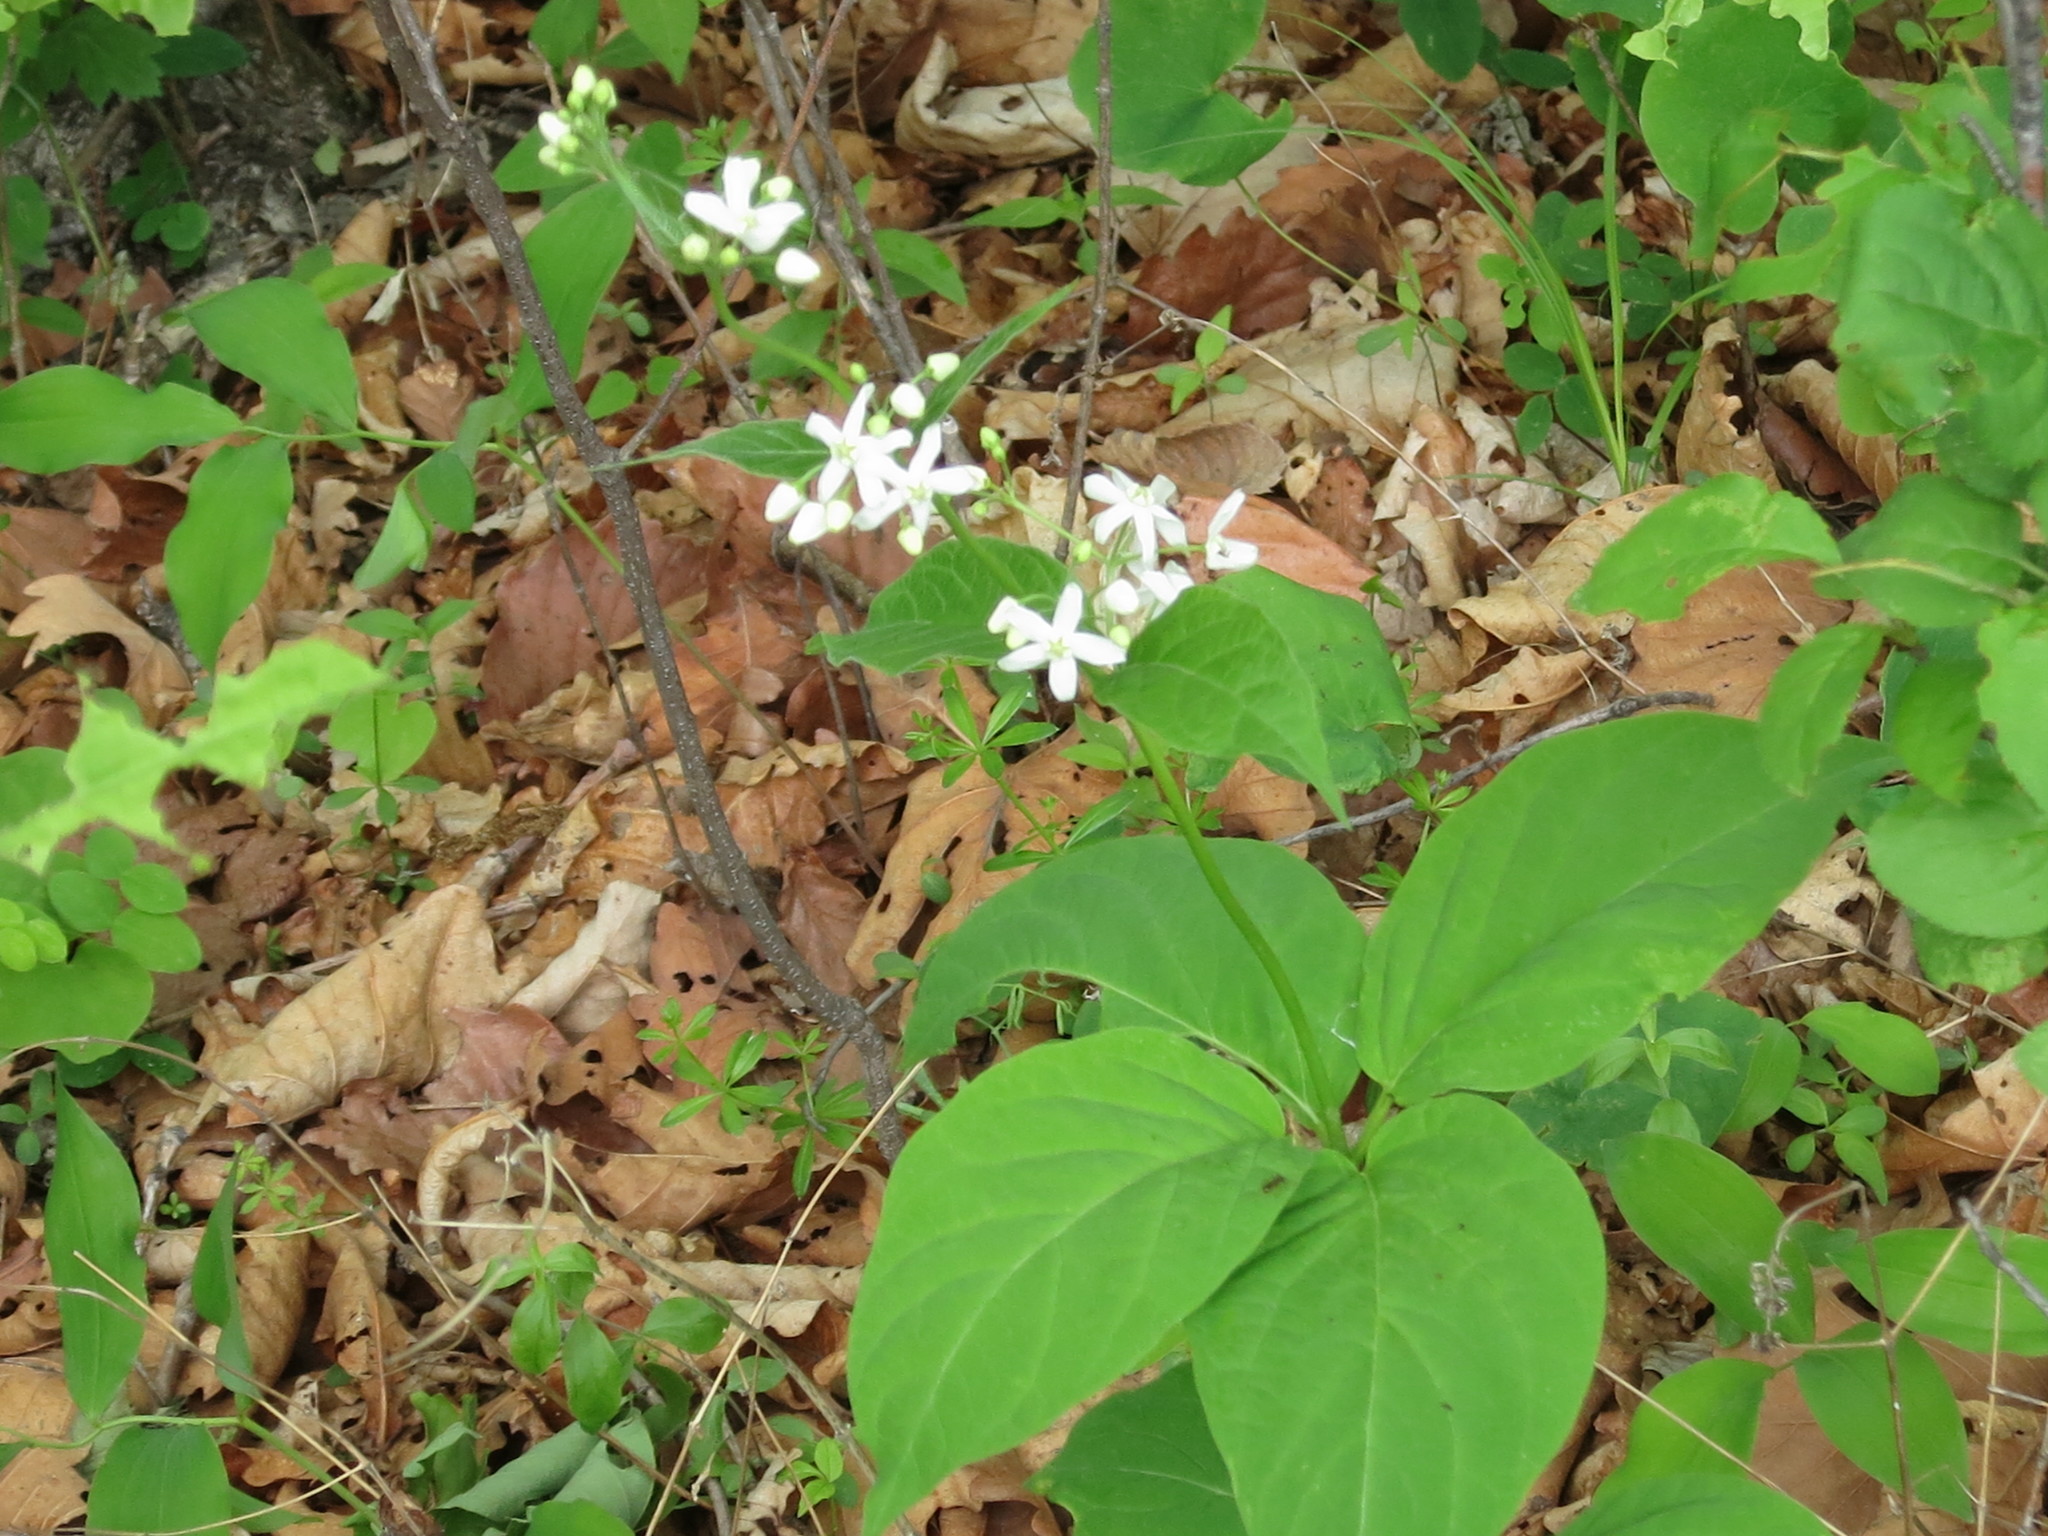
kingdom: Plantae
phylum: Tracheophyta
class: Magnoliopsida
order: Gentianales
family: Apocynaceae
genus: Vincetoxicum
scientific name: Vincetoxicum ascyrifolium
